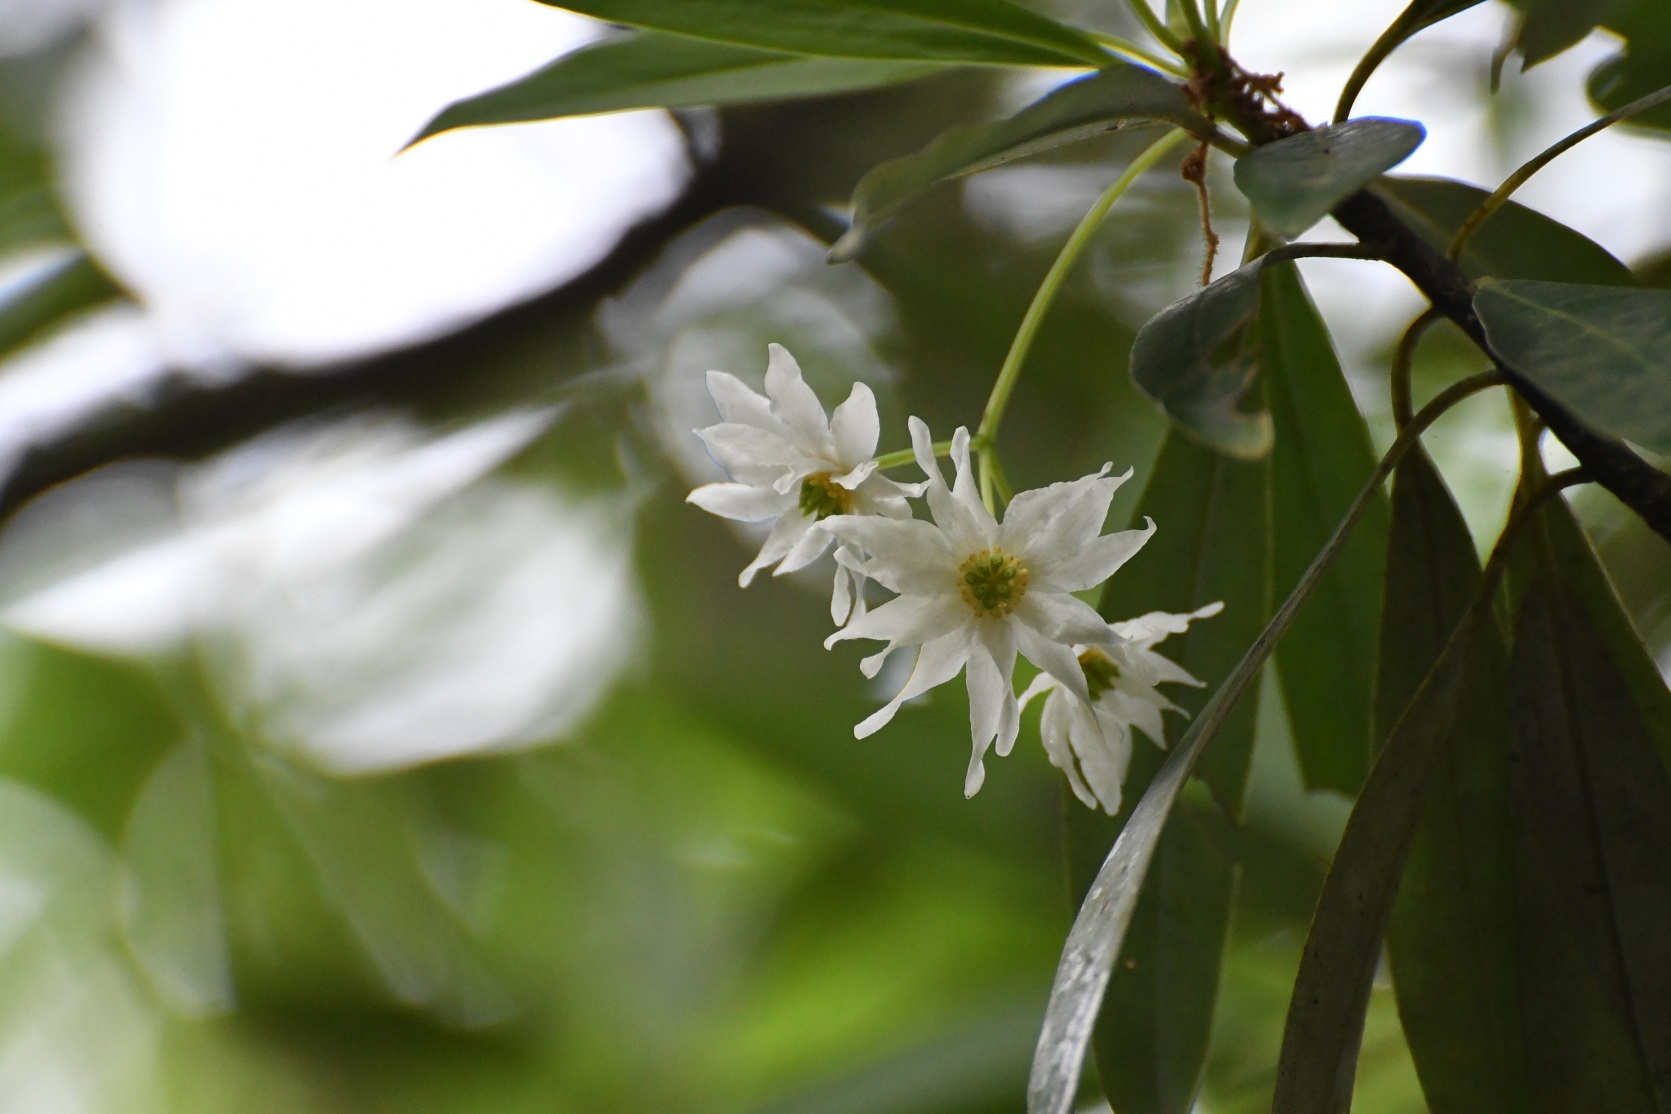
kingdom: Plantae
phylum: Tracheophyta
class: Magnoliopsida
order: Canellales
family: Winteraceae
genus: Drimys
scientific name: Drimys granadensis
